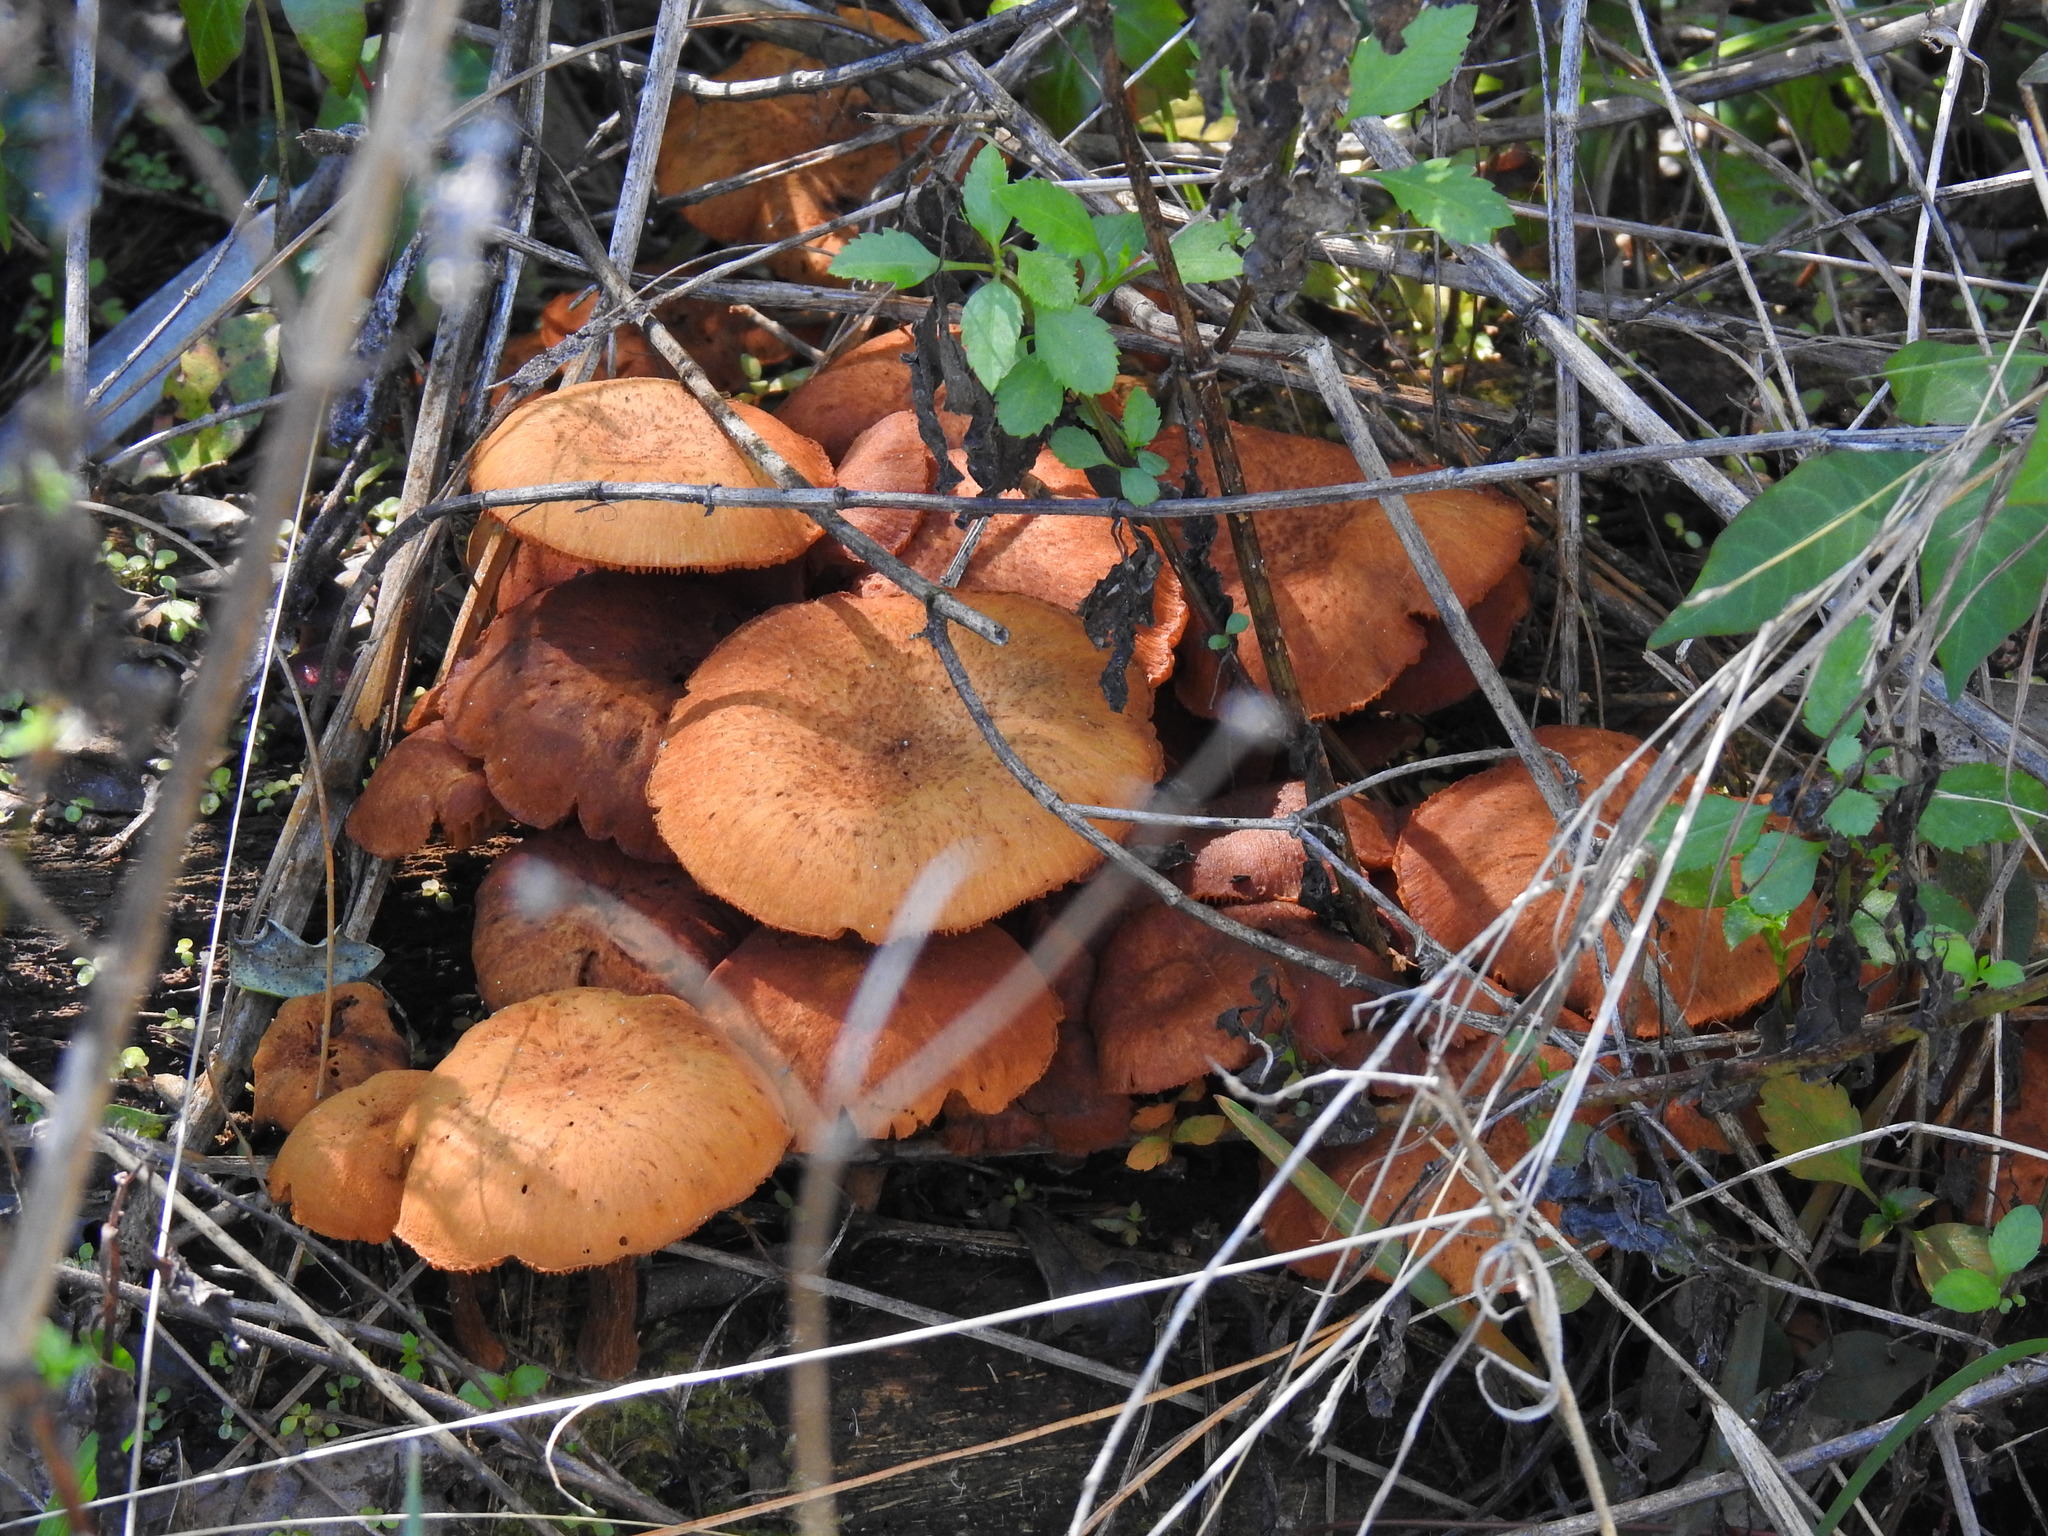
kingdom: Fungi
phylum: Basidiomycota
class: Agaricomycetes
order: Agaricales
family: Physalacriaceae
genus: Desarmillaria
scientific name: Desarmillaria caespitosa
